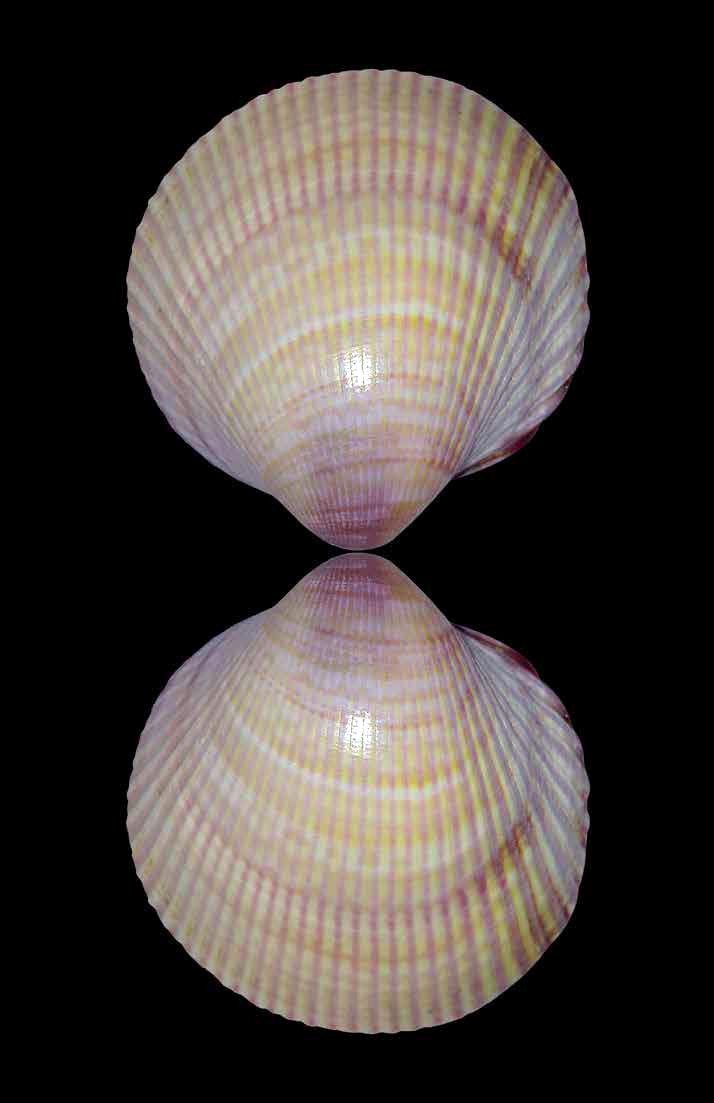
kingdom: Animalia
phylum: Mollusca
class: Bivalvia
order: Cardiida
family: Cardiidae
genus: Fulvia
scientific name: Fulvia fragilis
